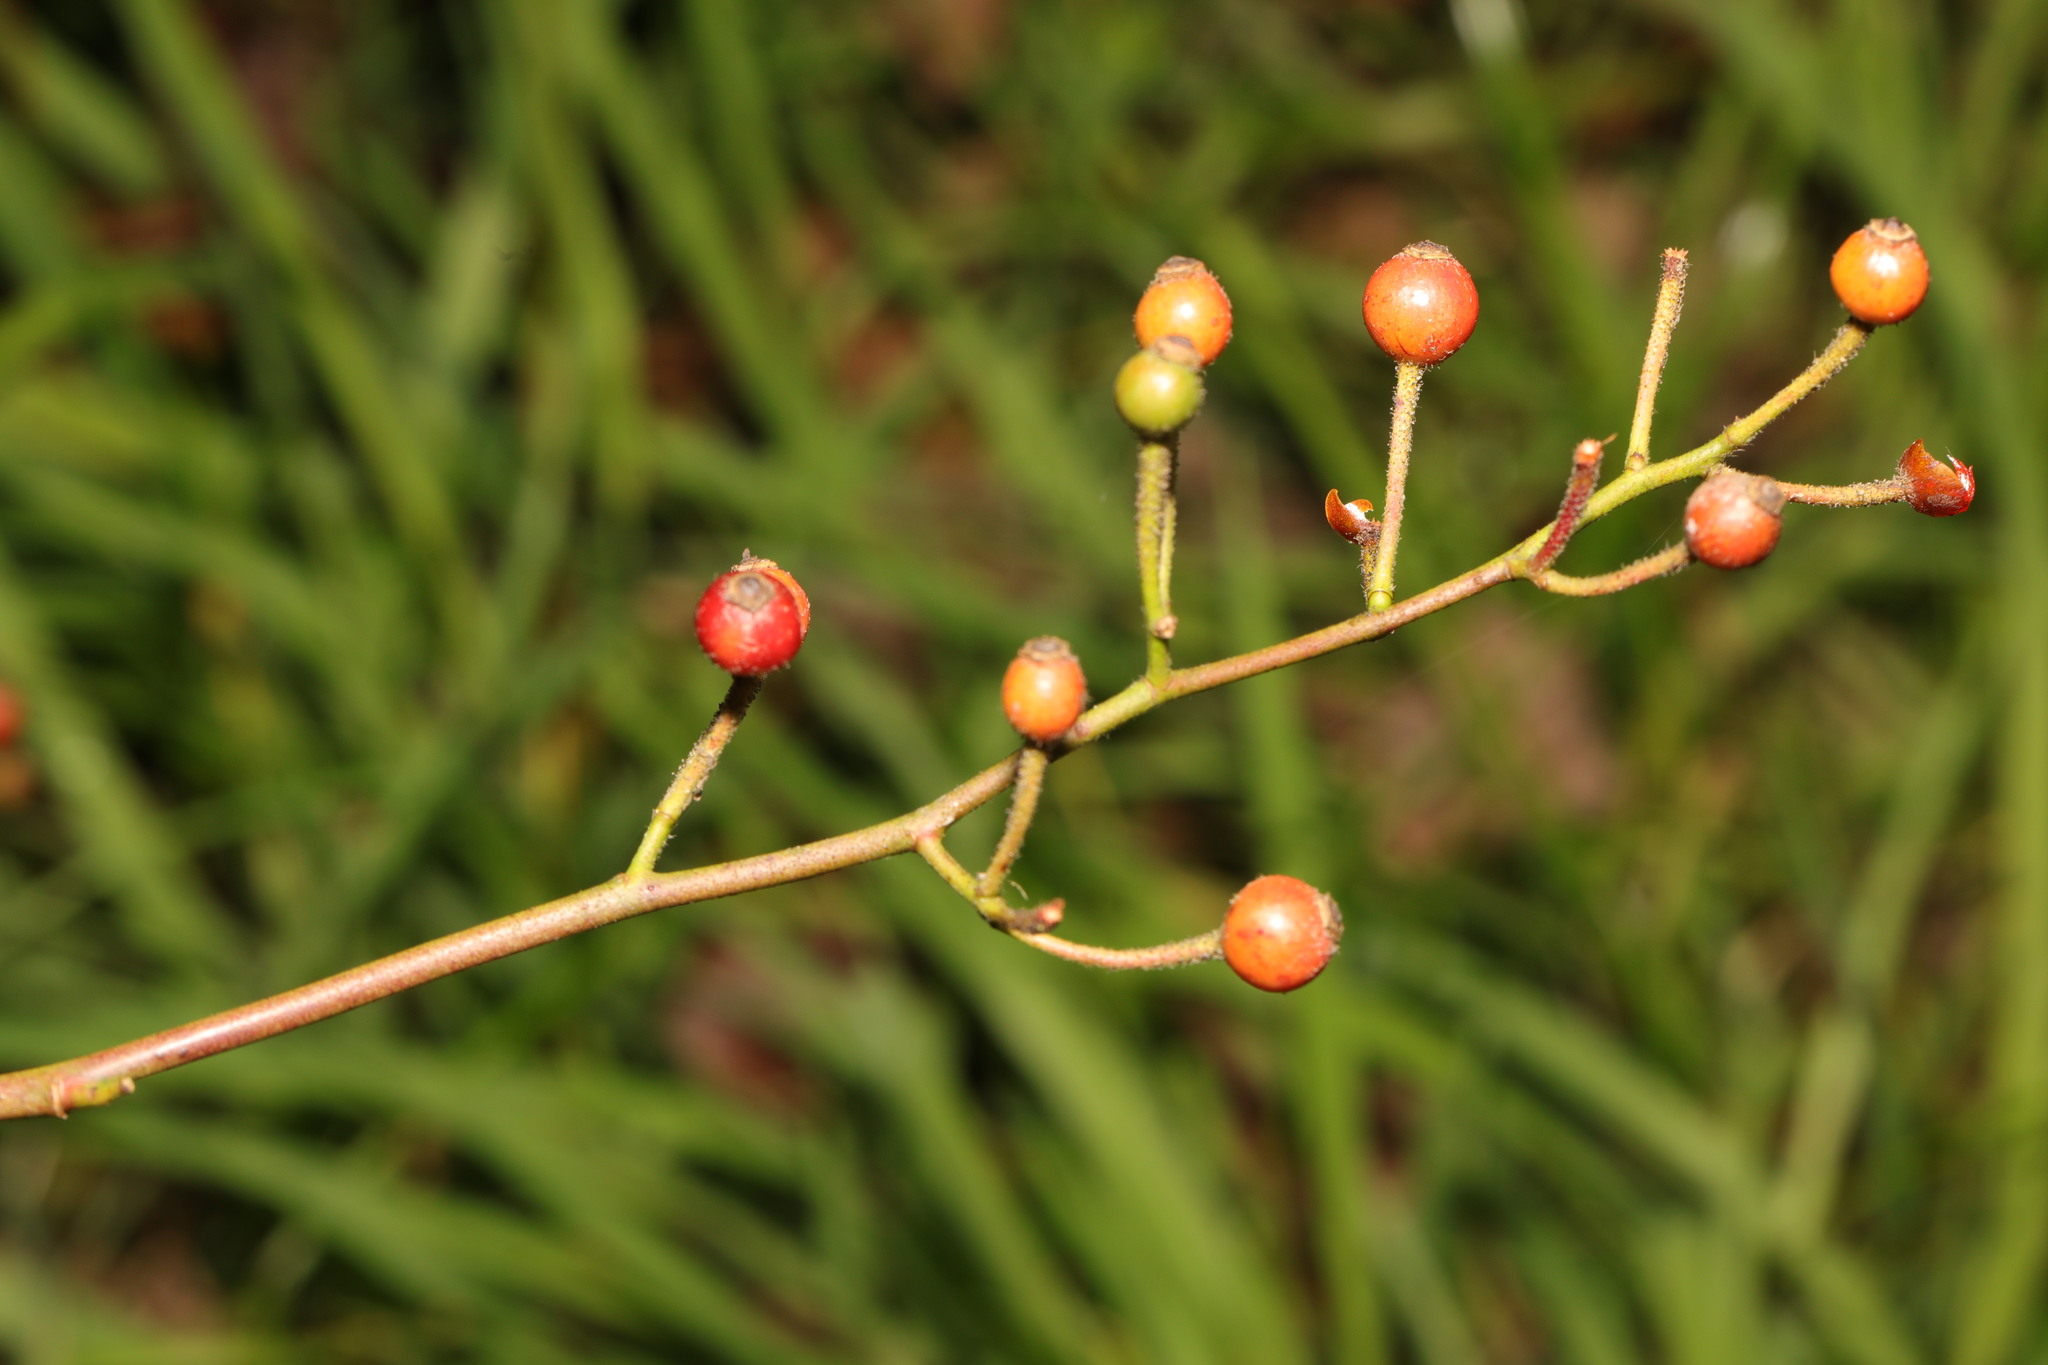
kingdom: Plantae
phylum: Tracheophyta
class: Magnoliopsida
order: Rosales
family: Rosaceae
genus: Rosa
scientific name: Rosa multiflora
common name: Multiflora rose
